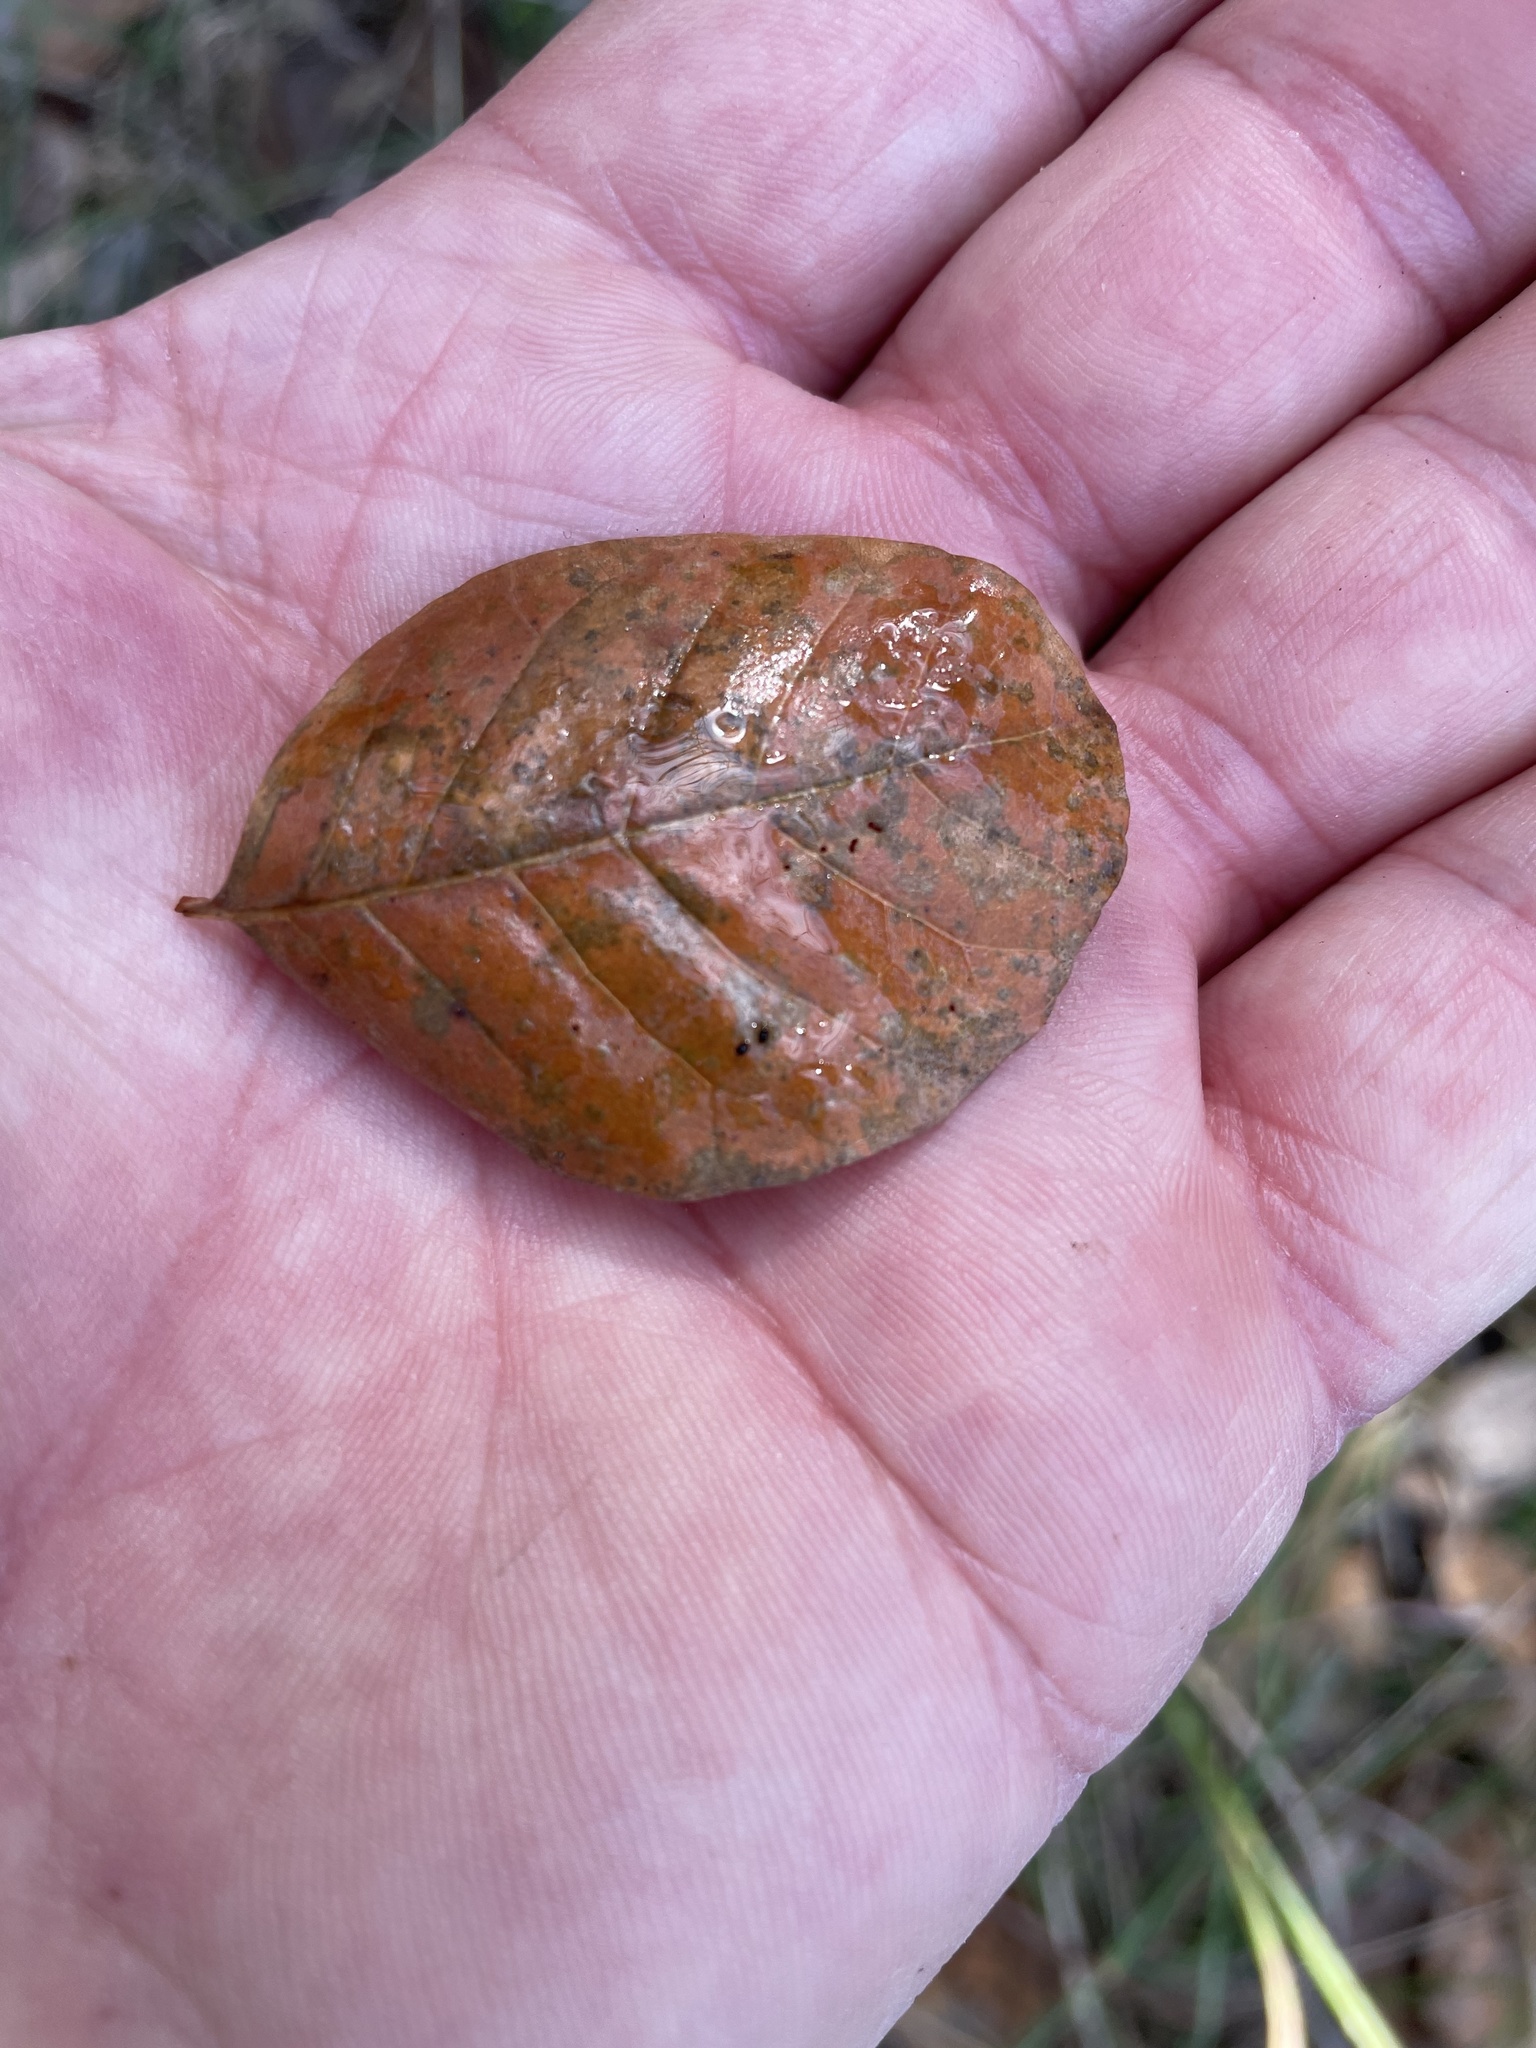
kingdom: Plantae
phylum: Tracheophyta
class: Magnoliopsida
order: Lamiales
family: Oleaceae
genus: Fraxinus
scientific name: Fraxinus albicans
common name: Texas ash
